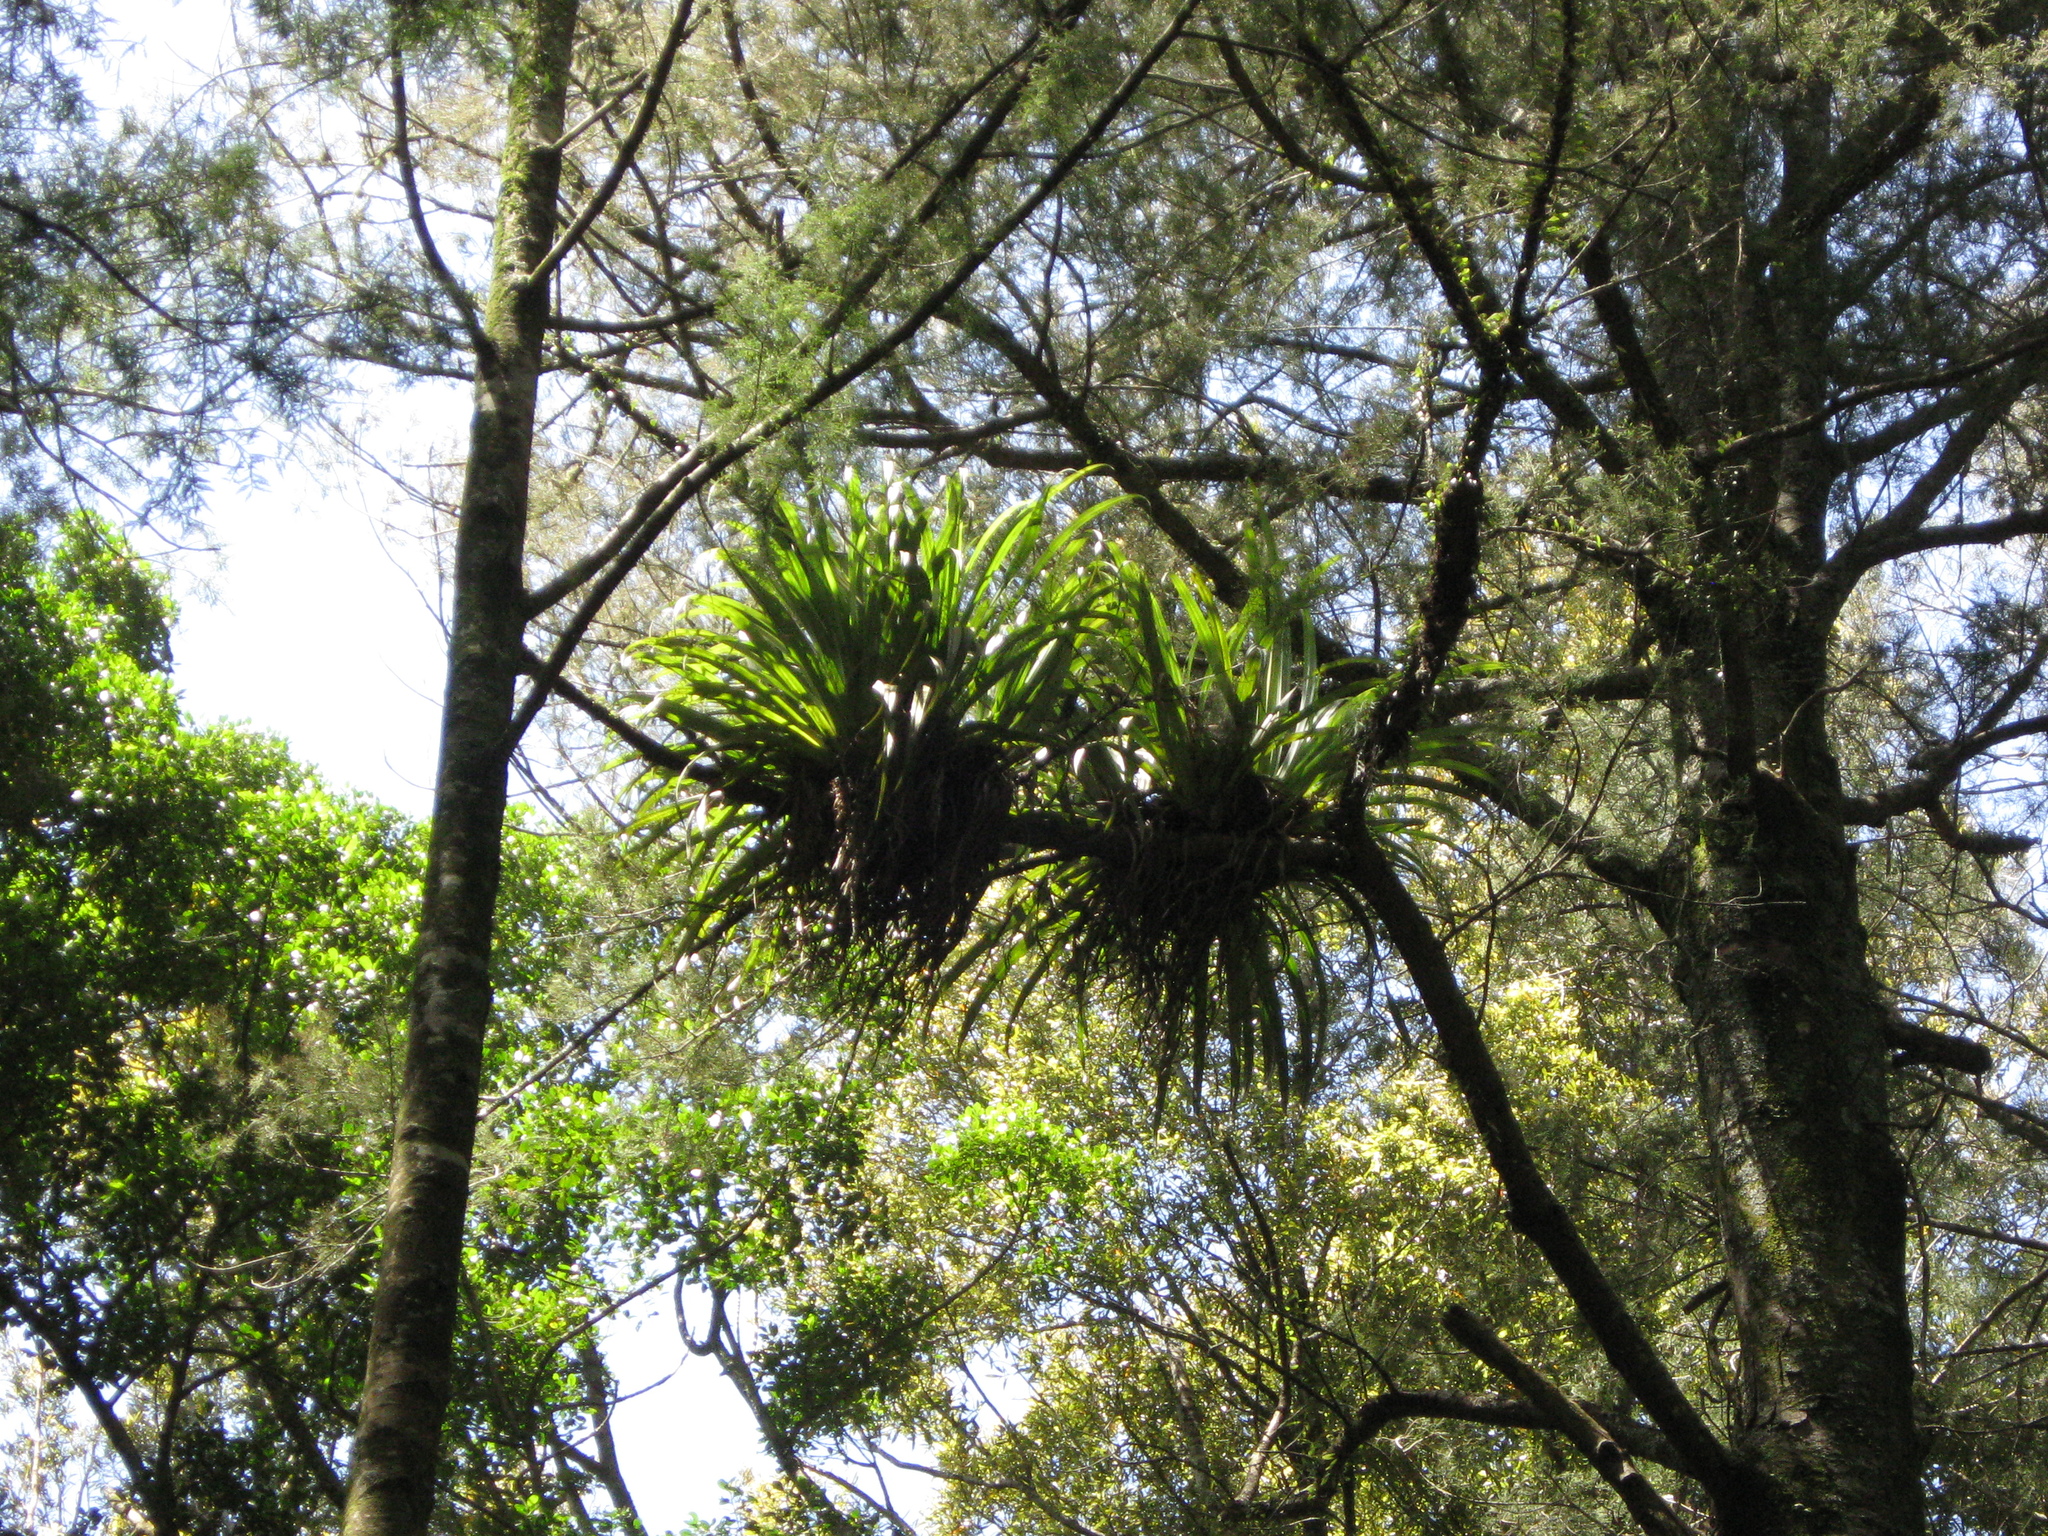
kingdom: Plantae
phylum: Tracheophyta
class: Liliopsida
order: Asparagales
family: Asteliaceae
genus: Astelia
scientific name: Astelia hastata
